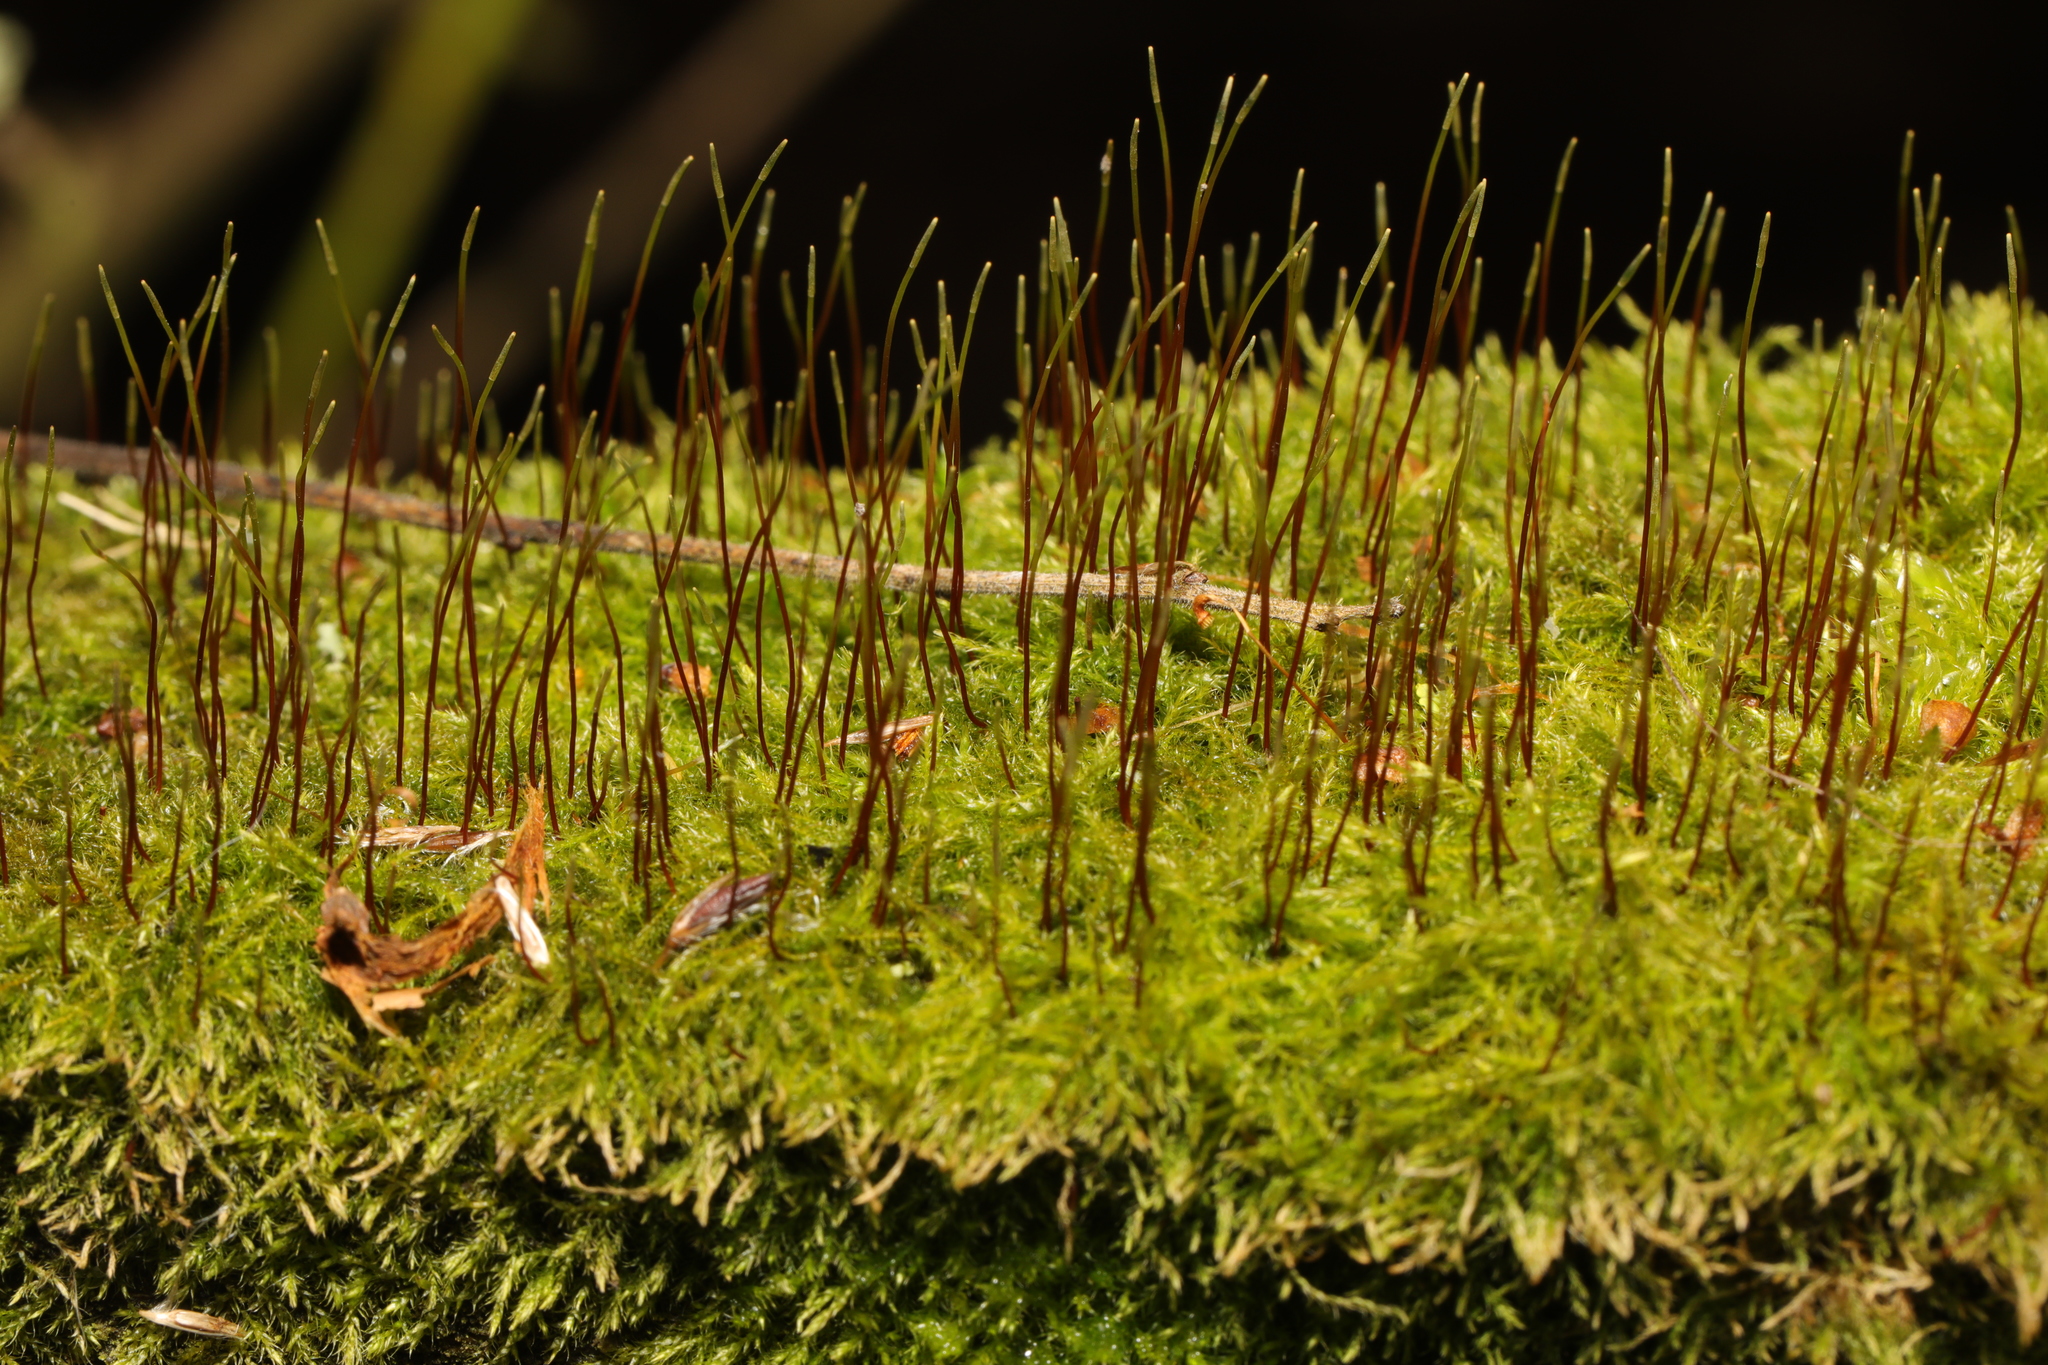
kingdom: Plantae
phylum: Bryophyta
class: Bryopsida
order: Hypnales
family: Amblystegiaceae
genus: Amblystegium
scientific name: Amblystegium serpens
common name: Jurkatzka's feather moss
